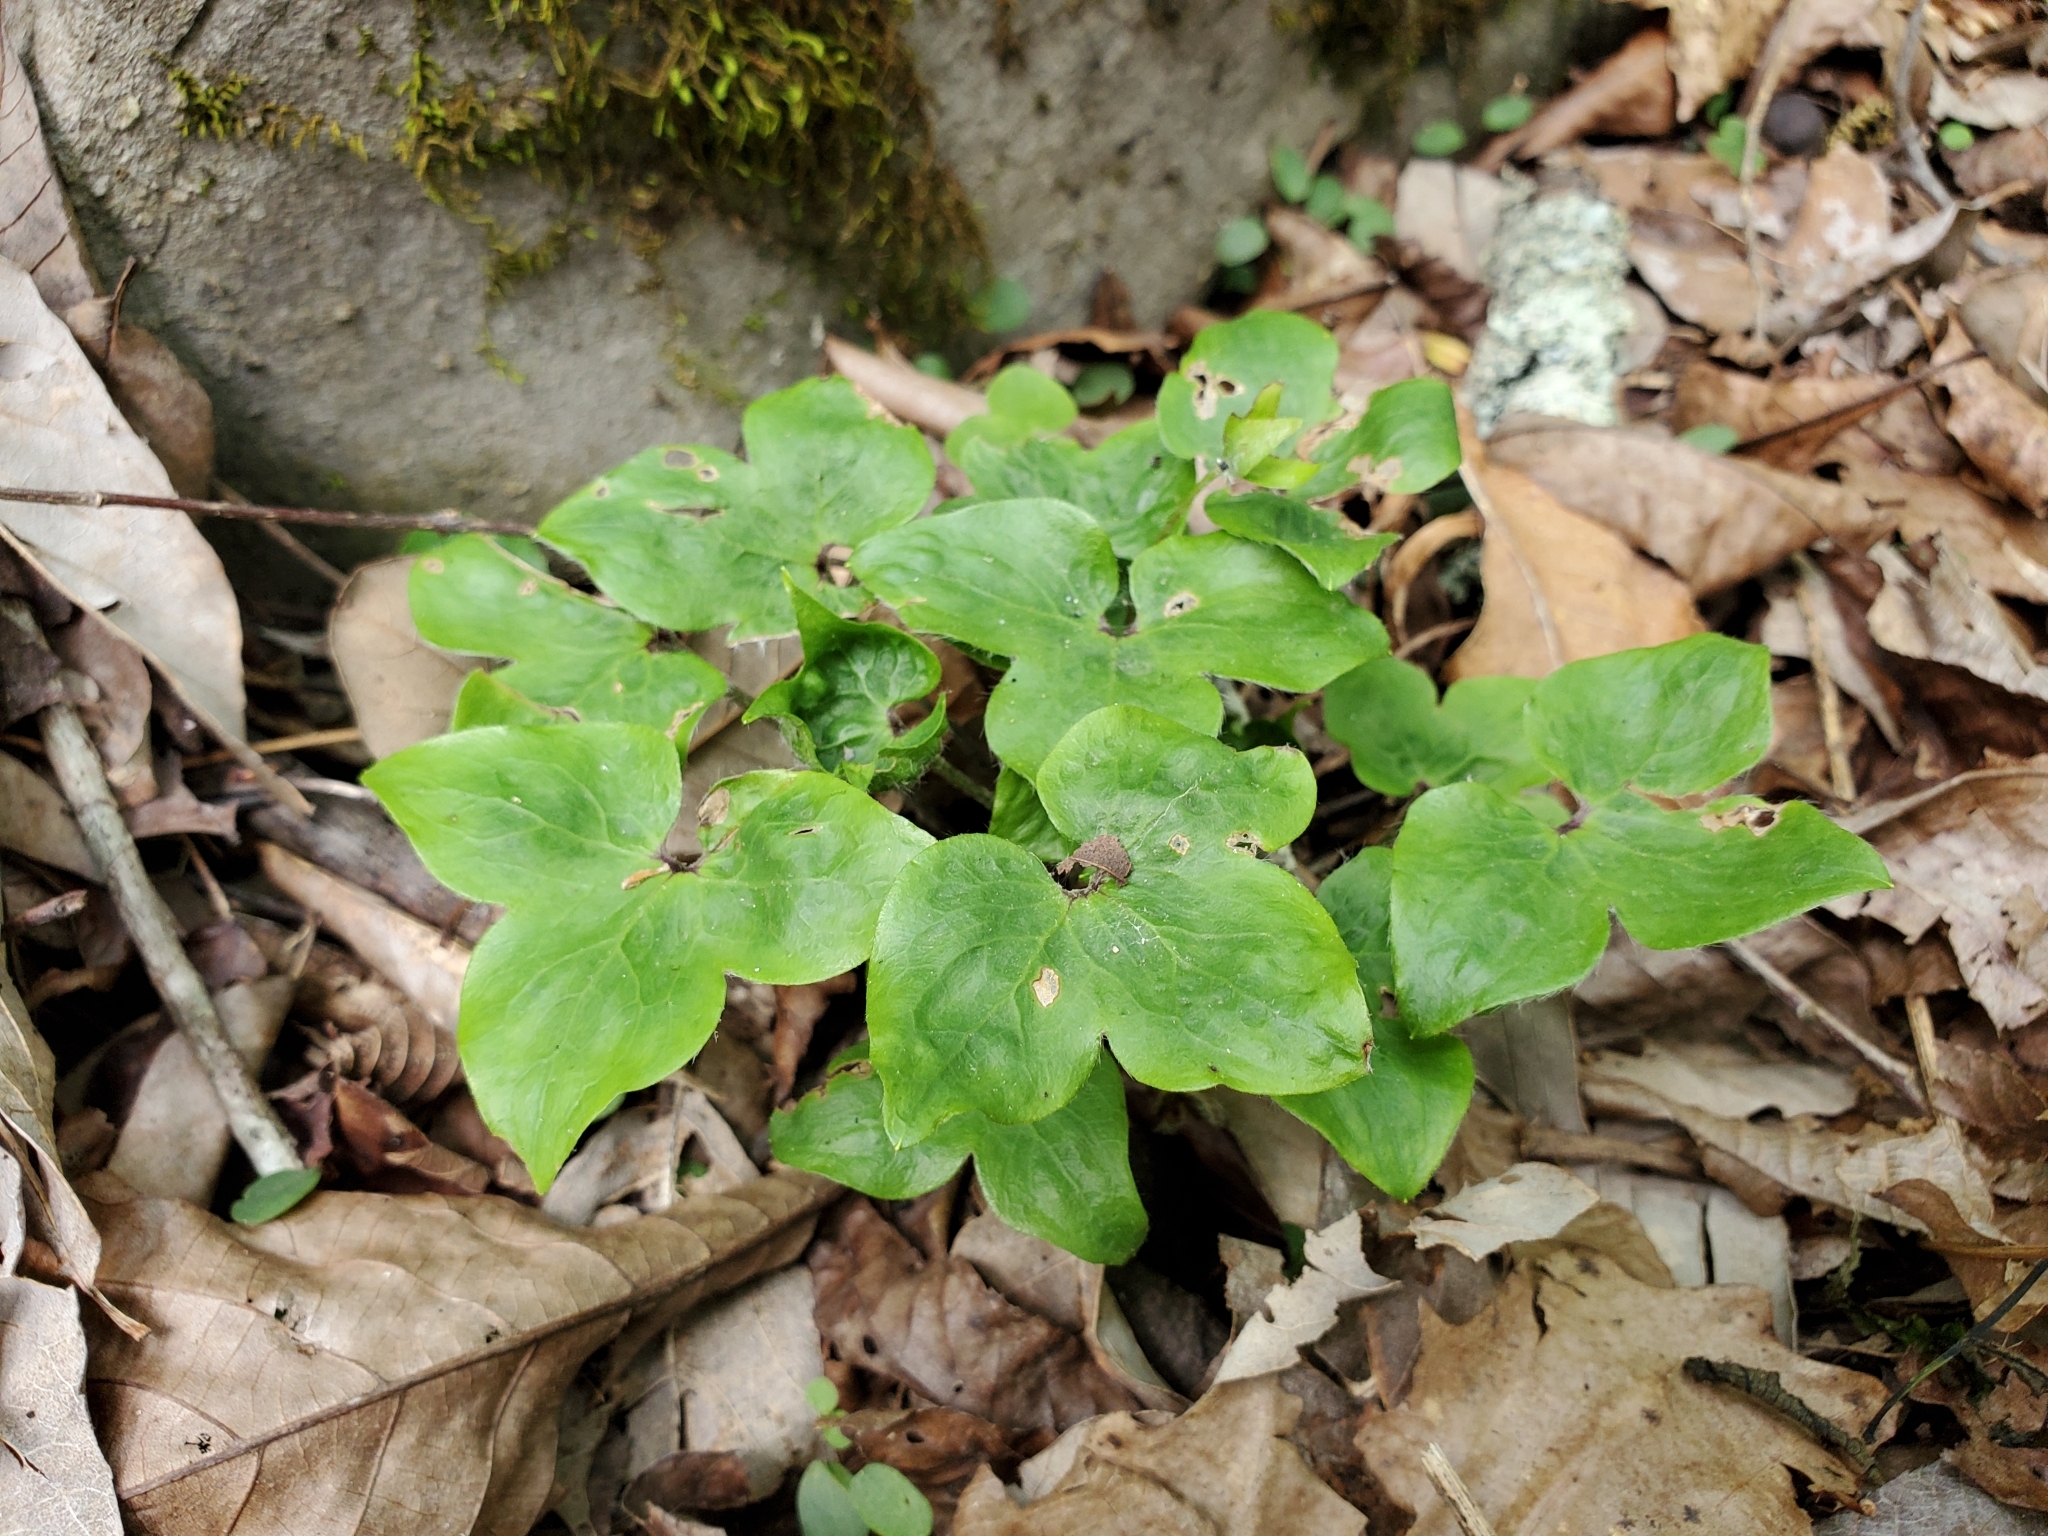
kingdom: Plantae
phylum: Tracheophyta
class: Magnoliopsida
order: Ranunculales
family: Ranunculaceae
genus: Hepatica
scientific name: Hepatica acutiloba
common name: Sharp-lobed hepatica
